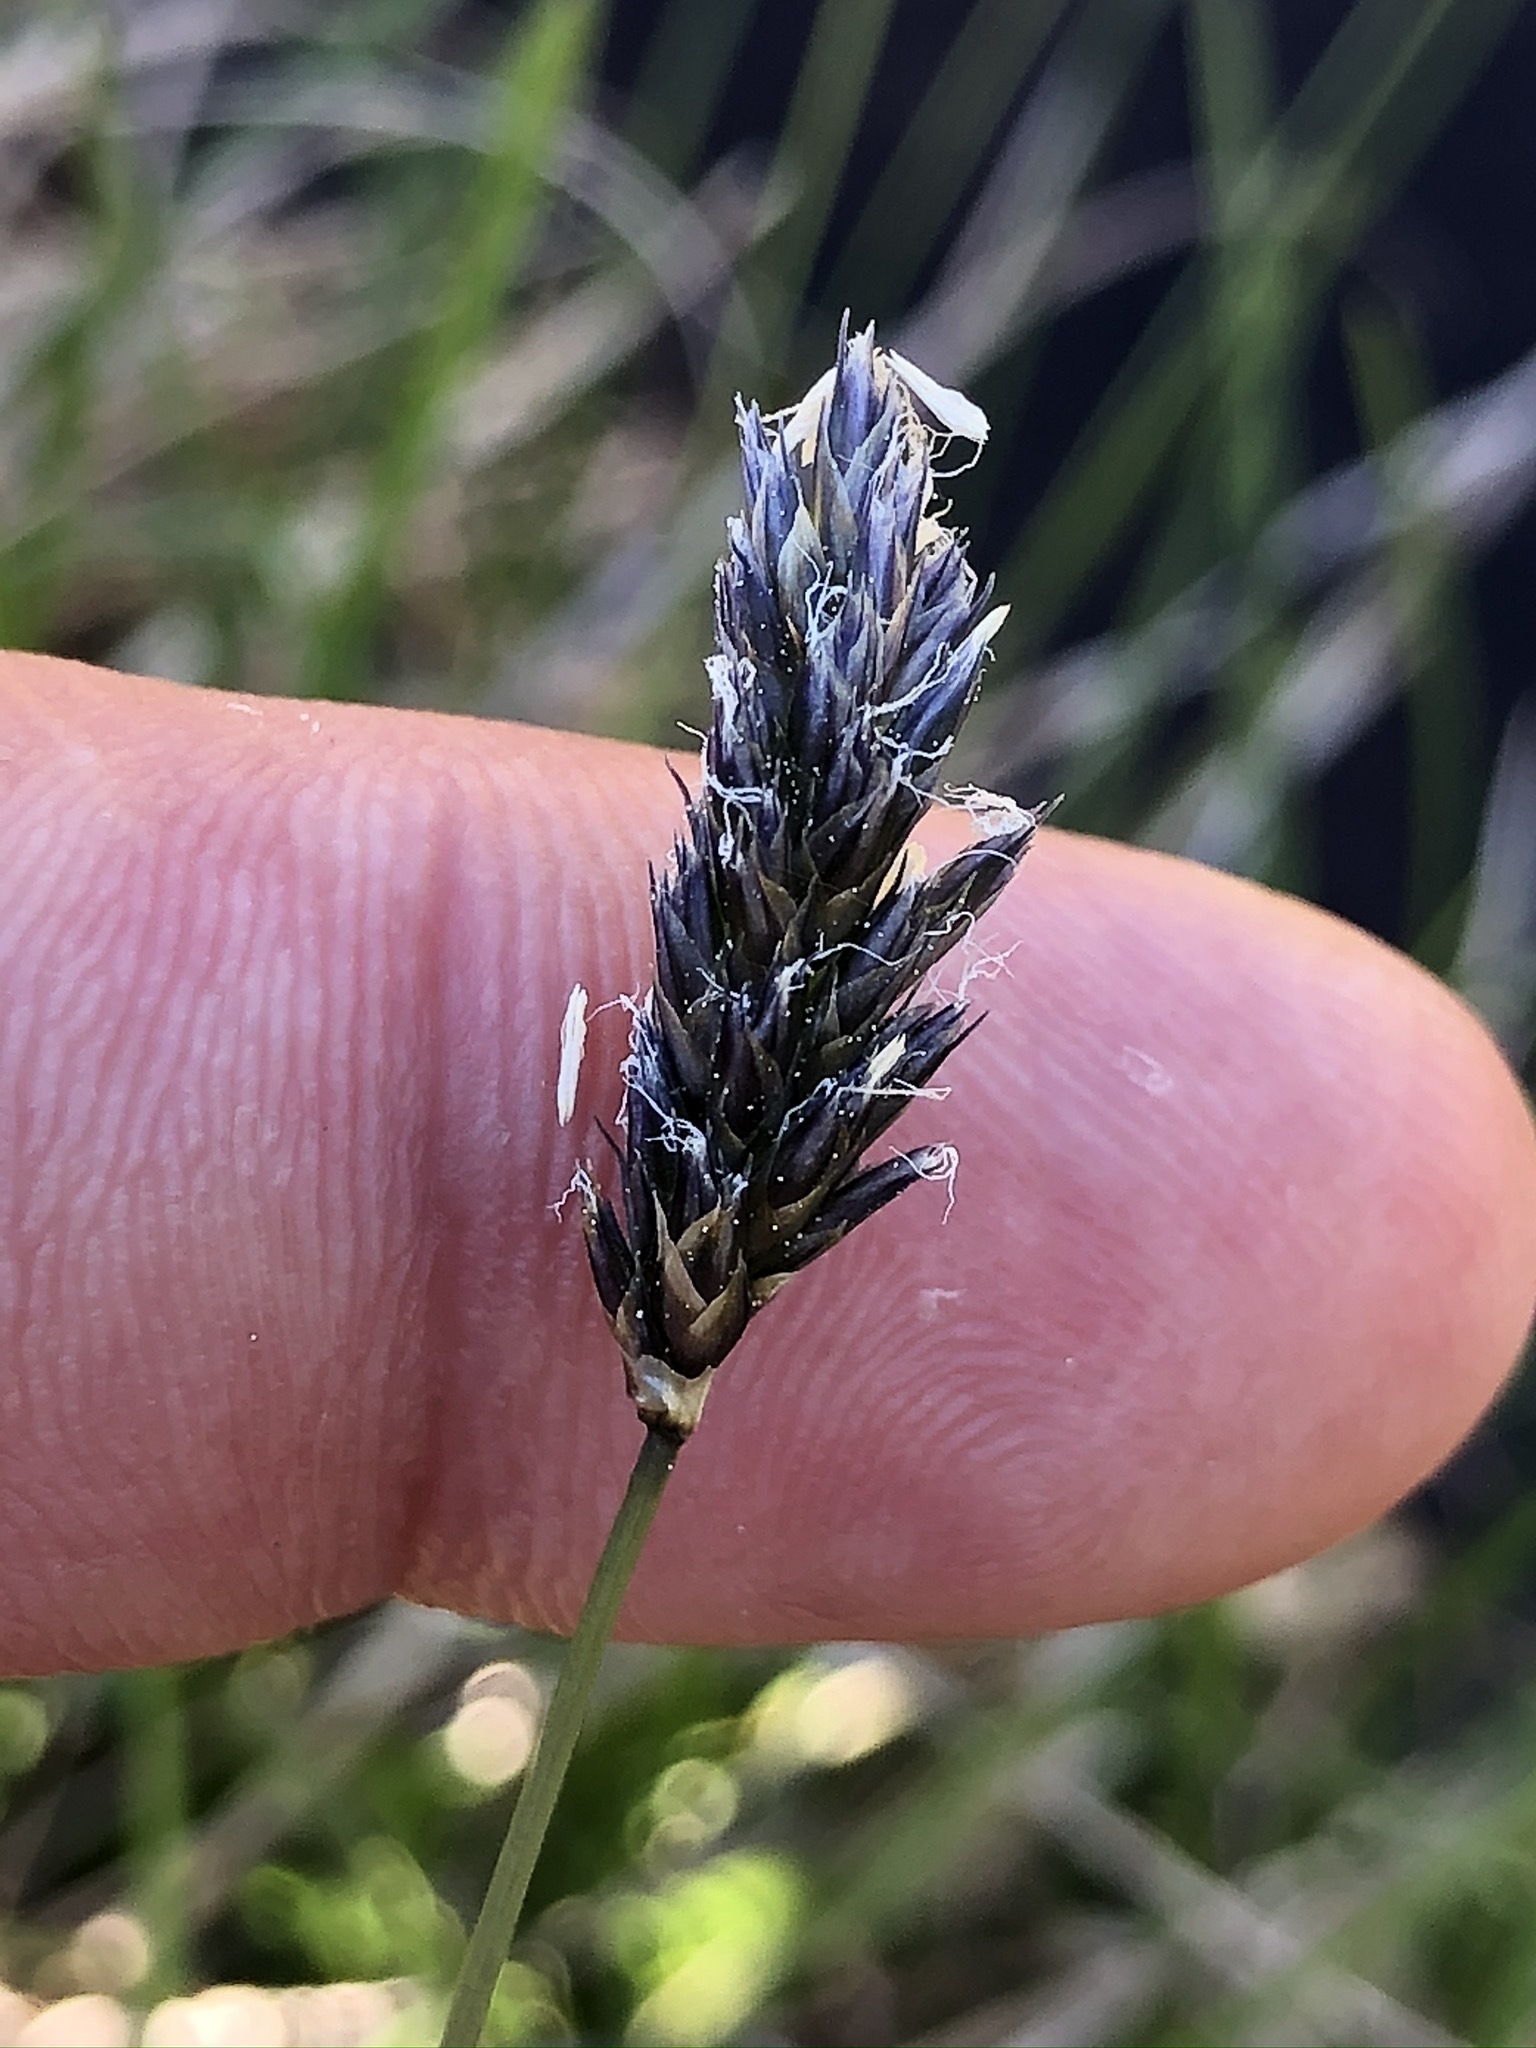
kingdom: Plantae
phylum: Tracheophyta
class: Liliopsida
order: Poales
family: Poaceae
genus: Sesleria
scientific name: Sesleria caerulea
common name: Blue moor-grass
